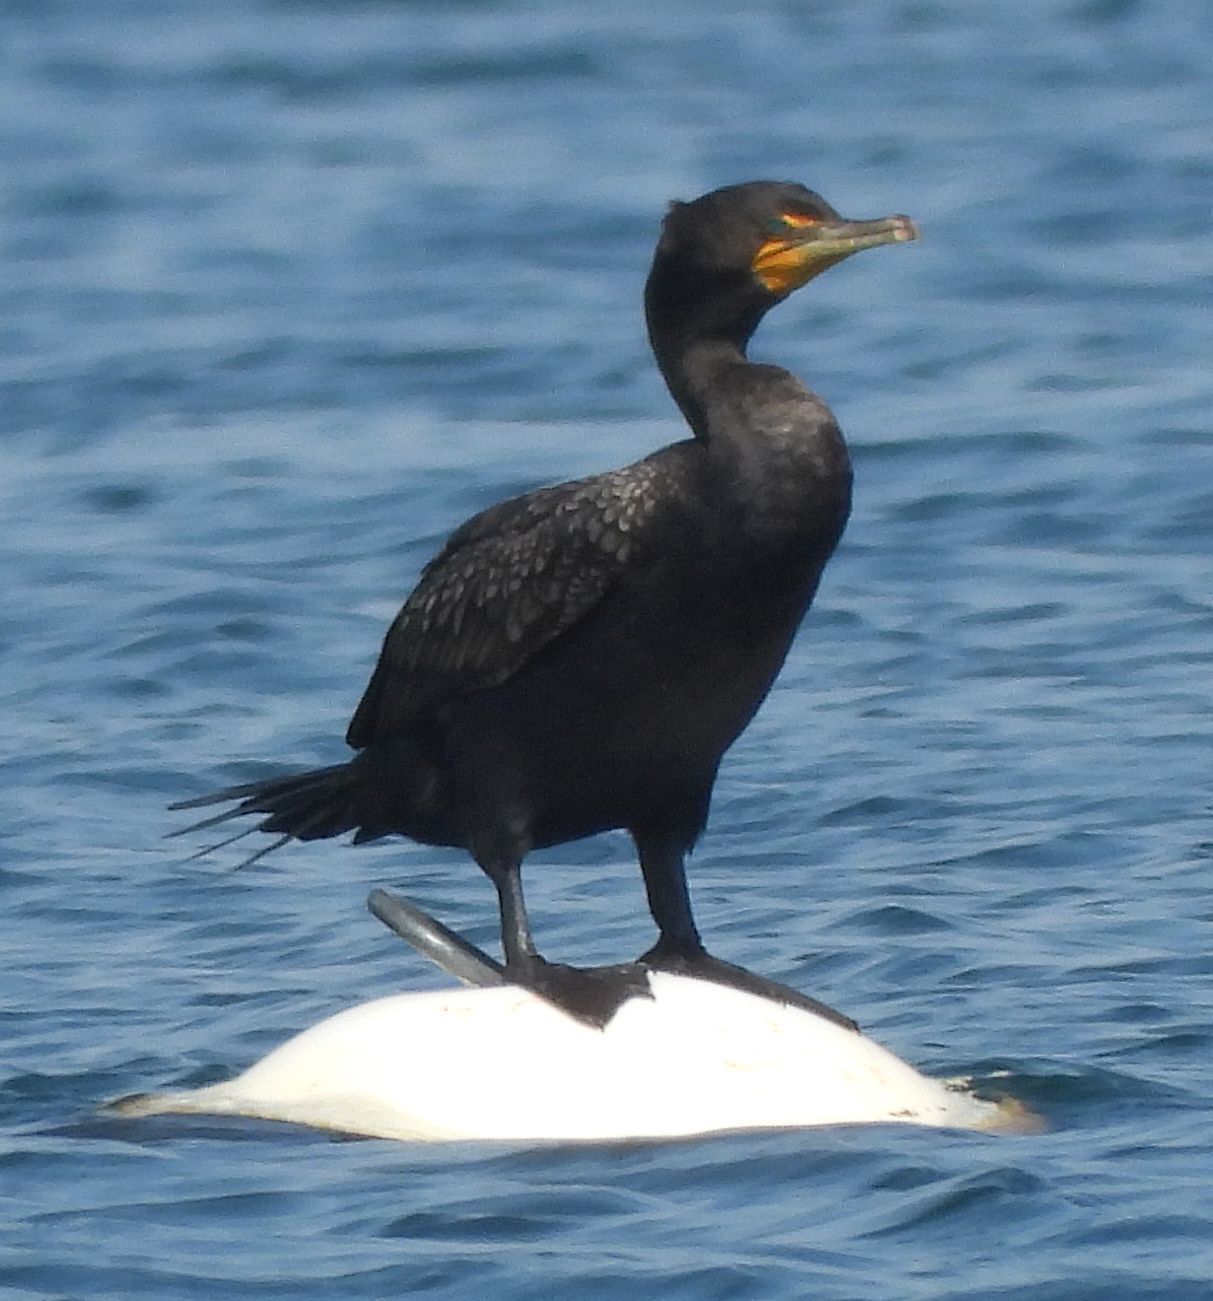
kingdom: Animalia
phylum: Chordata
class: Aves
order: Suliformes
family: Phalacrocoracidae
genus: Phalacrocorax
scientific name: Phalacrocorax auritus
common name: Double-crested cormorant
